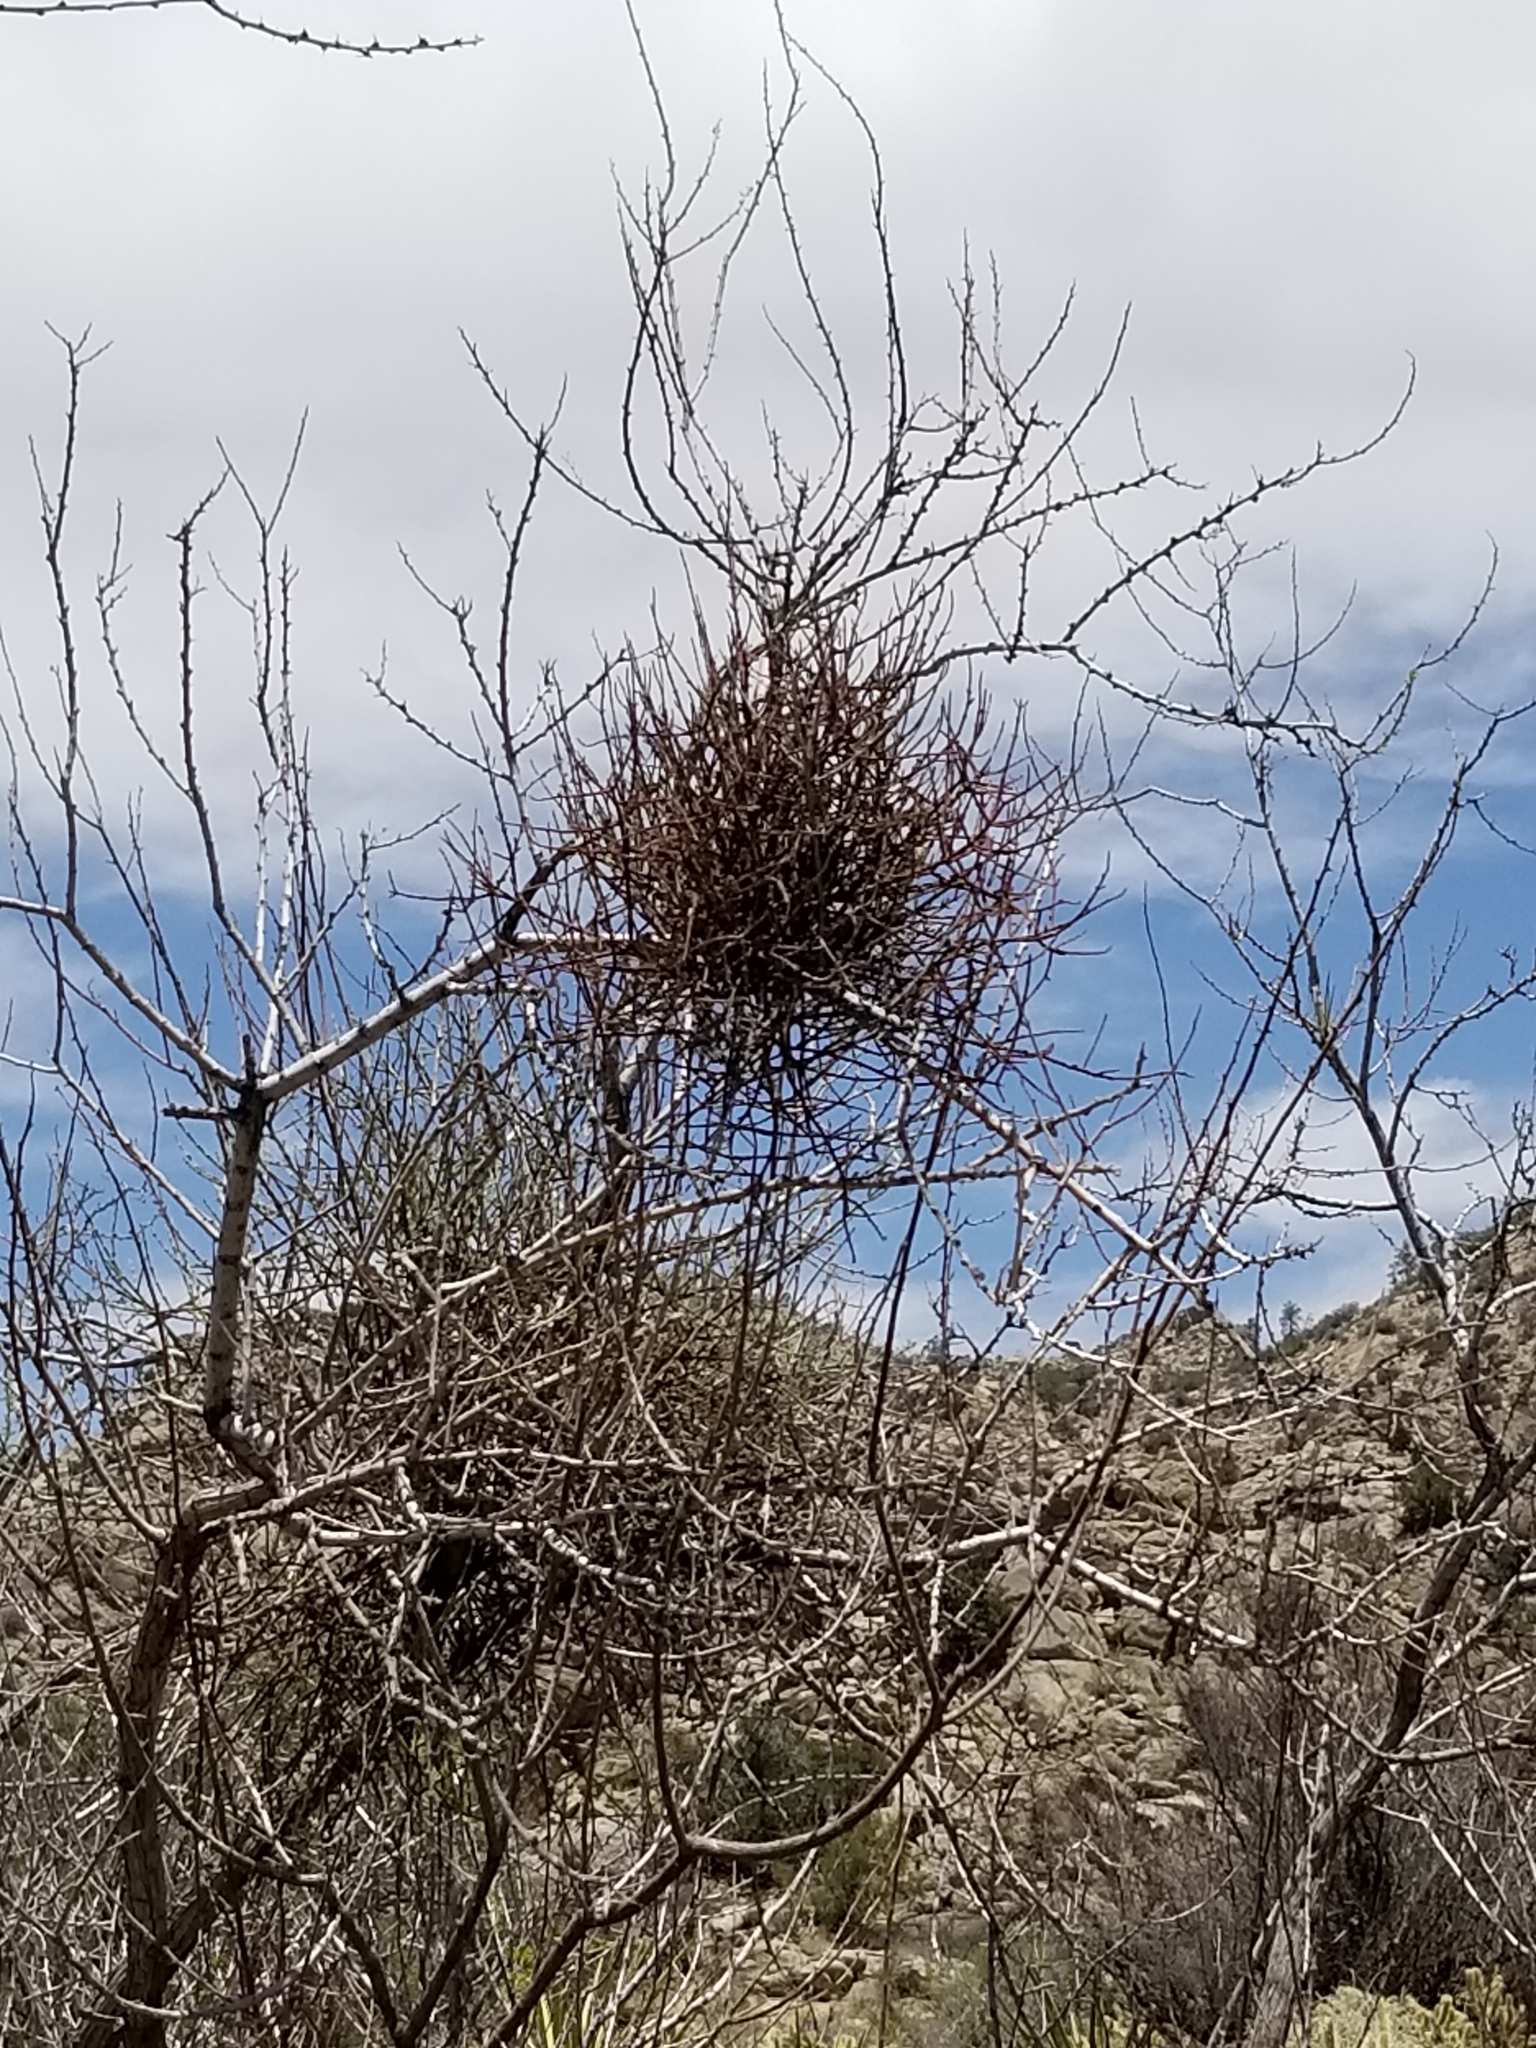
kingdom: Plantae
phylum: Tracheophyta
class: Magnoliopsida
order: Santalales
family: Viscaceae
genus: Phoradendron
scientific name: Phoradendron californicum
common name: Acacia mistletoe
